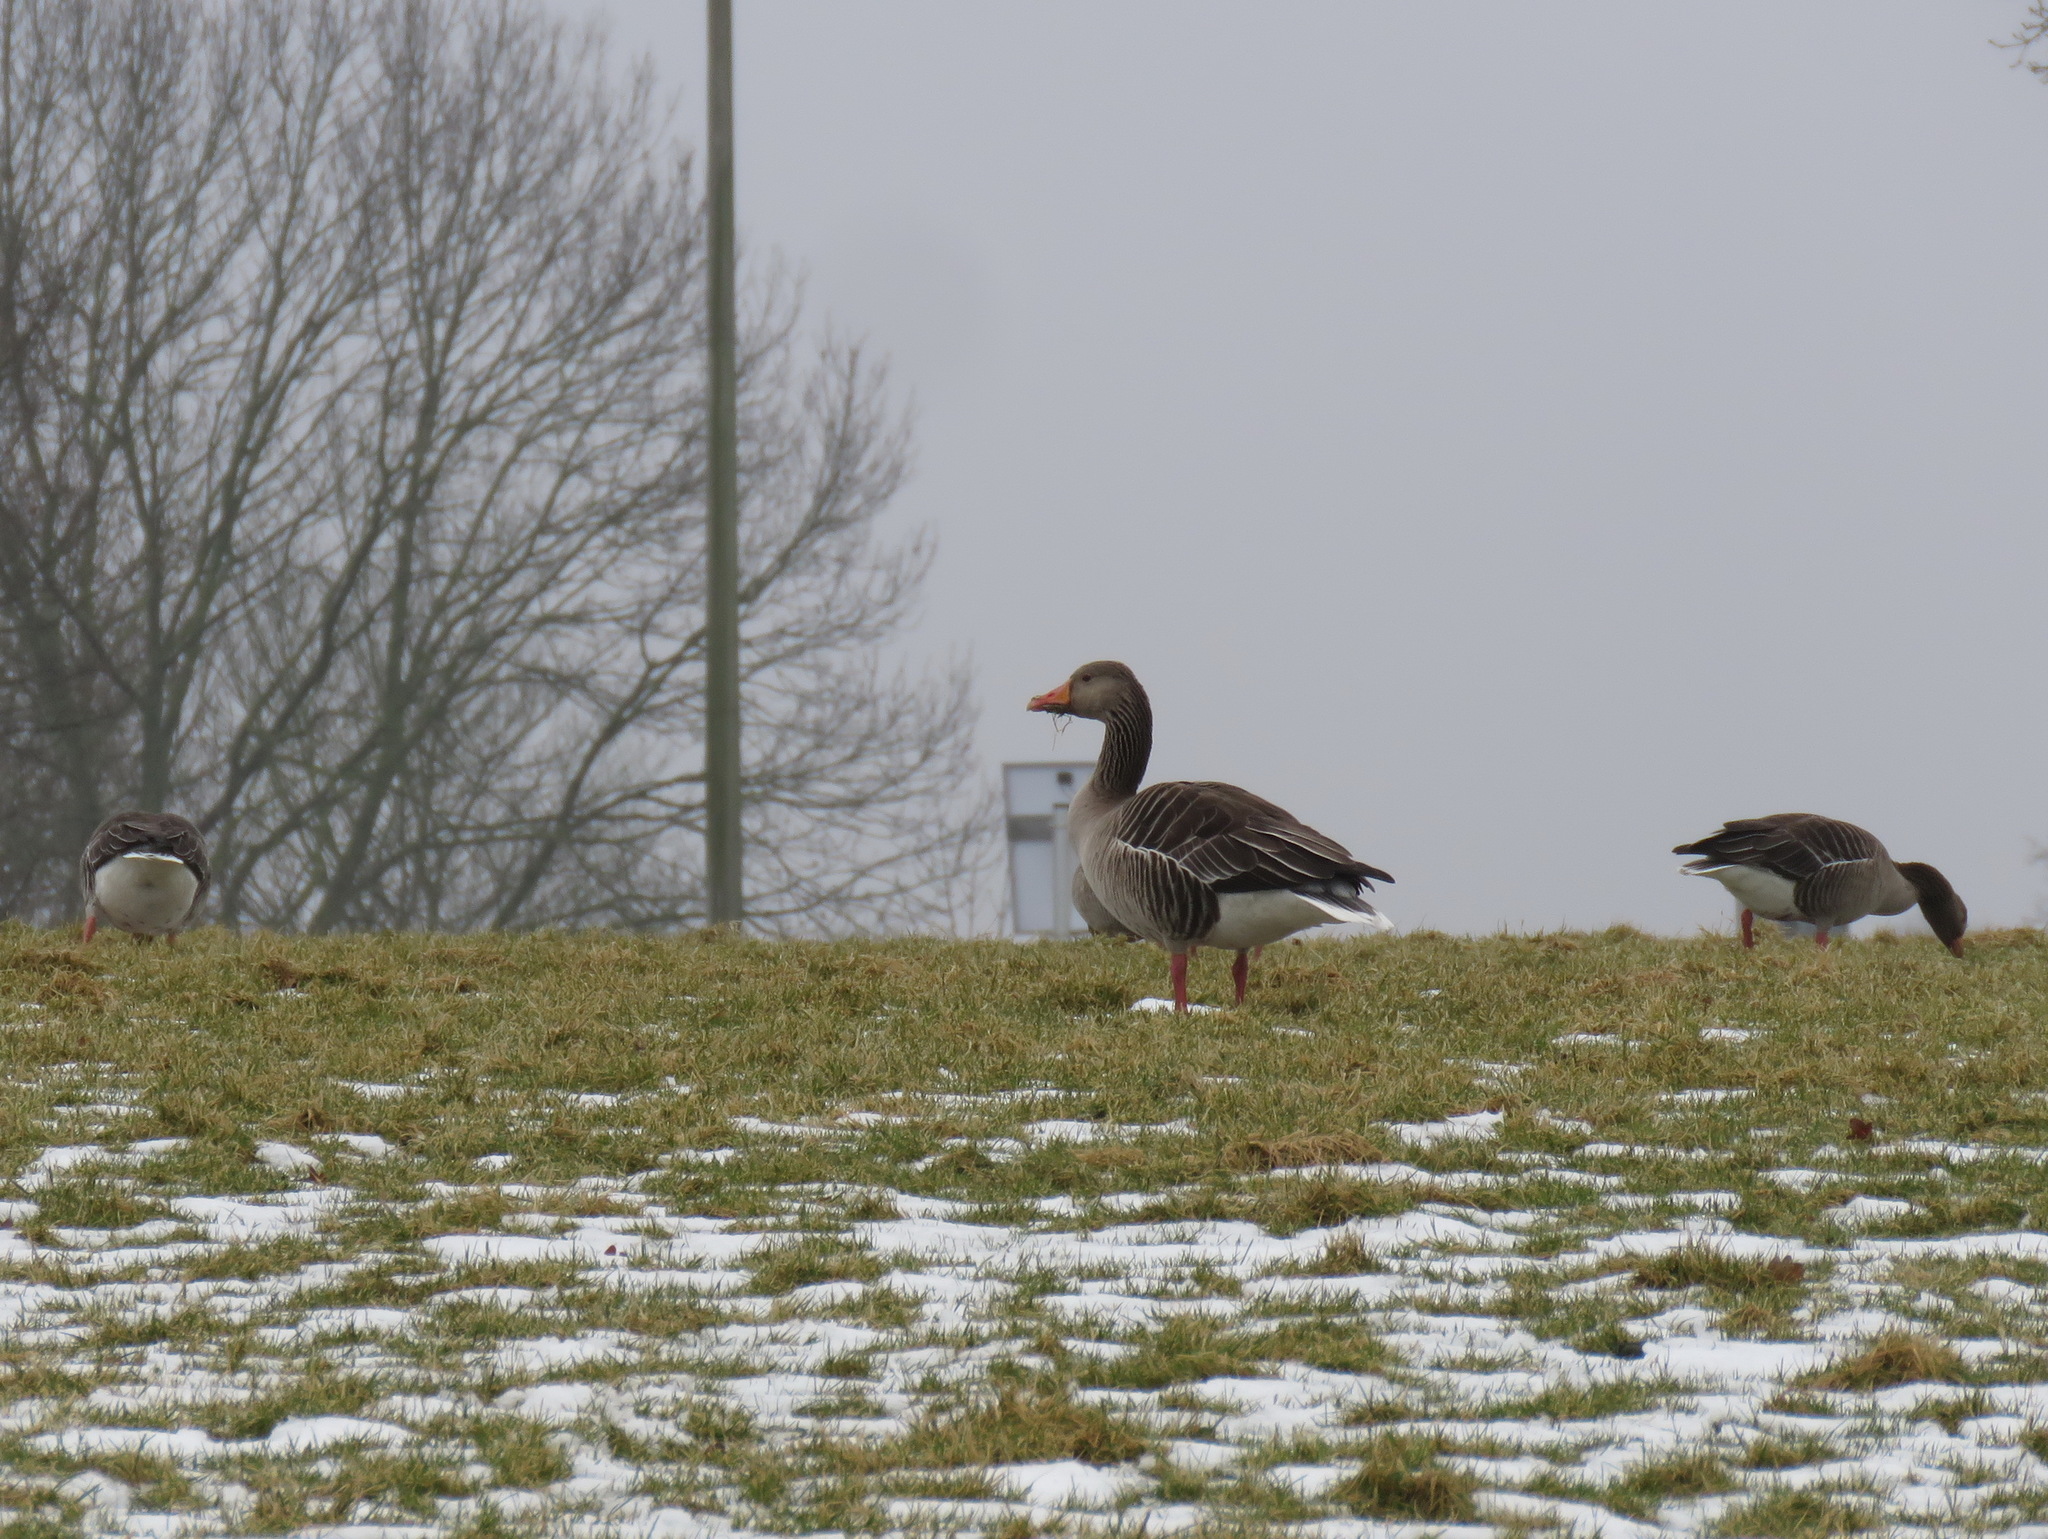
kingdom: Animalia
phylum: Chordata
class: Aves
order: Anseriformes
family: Anatidae
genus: Anser
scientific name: Anser anser
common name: Greylag goose
